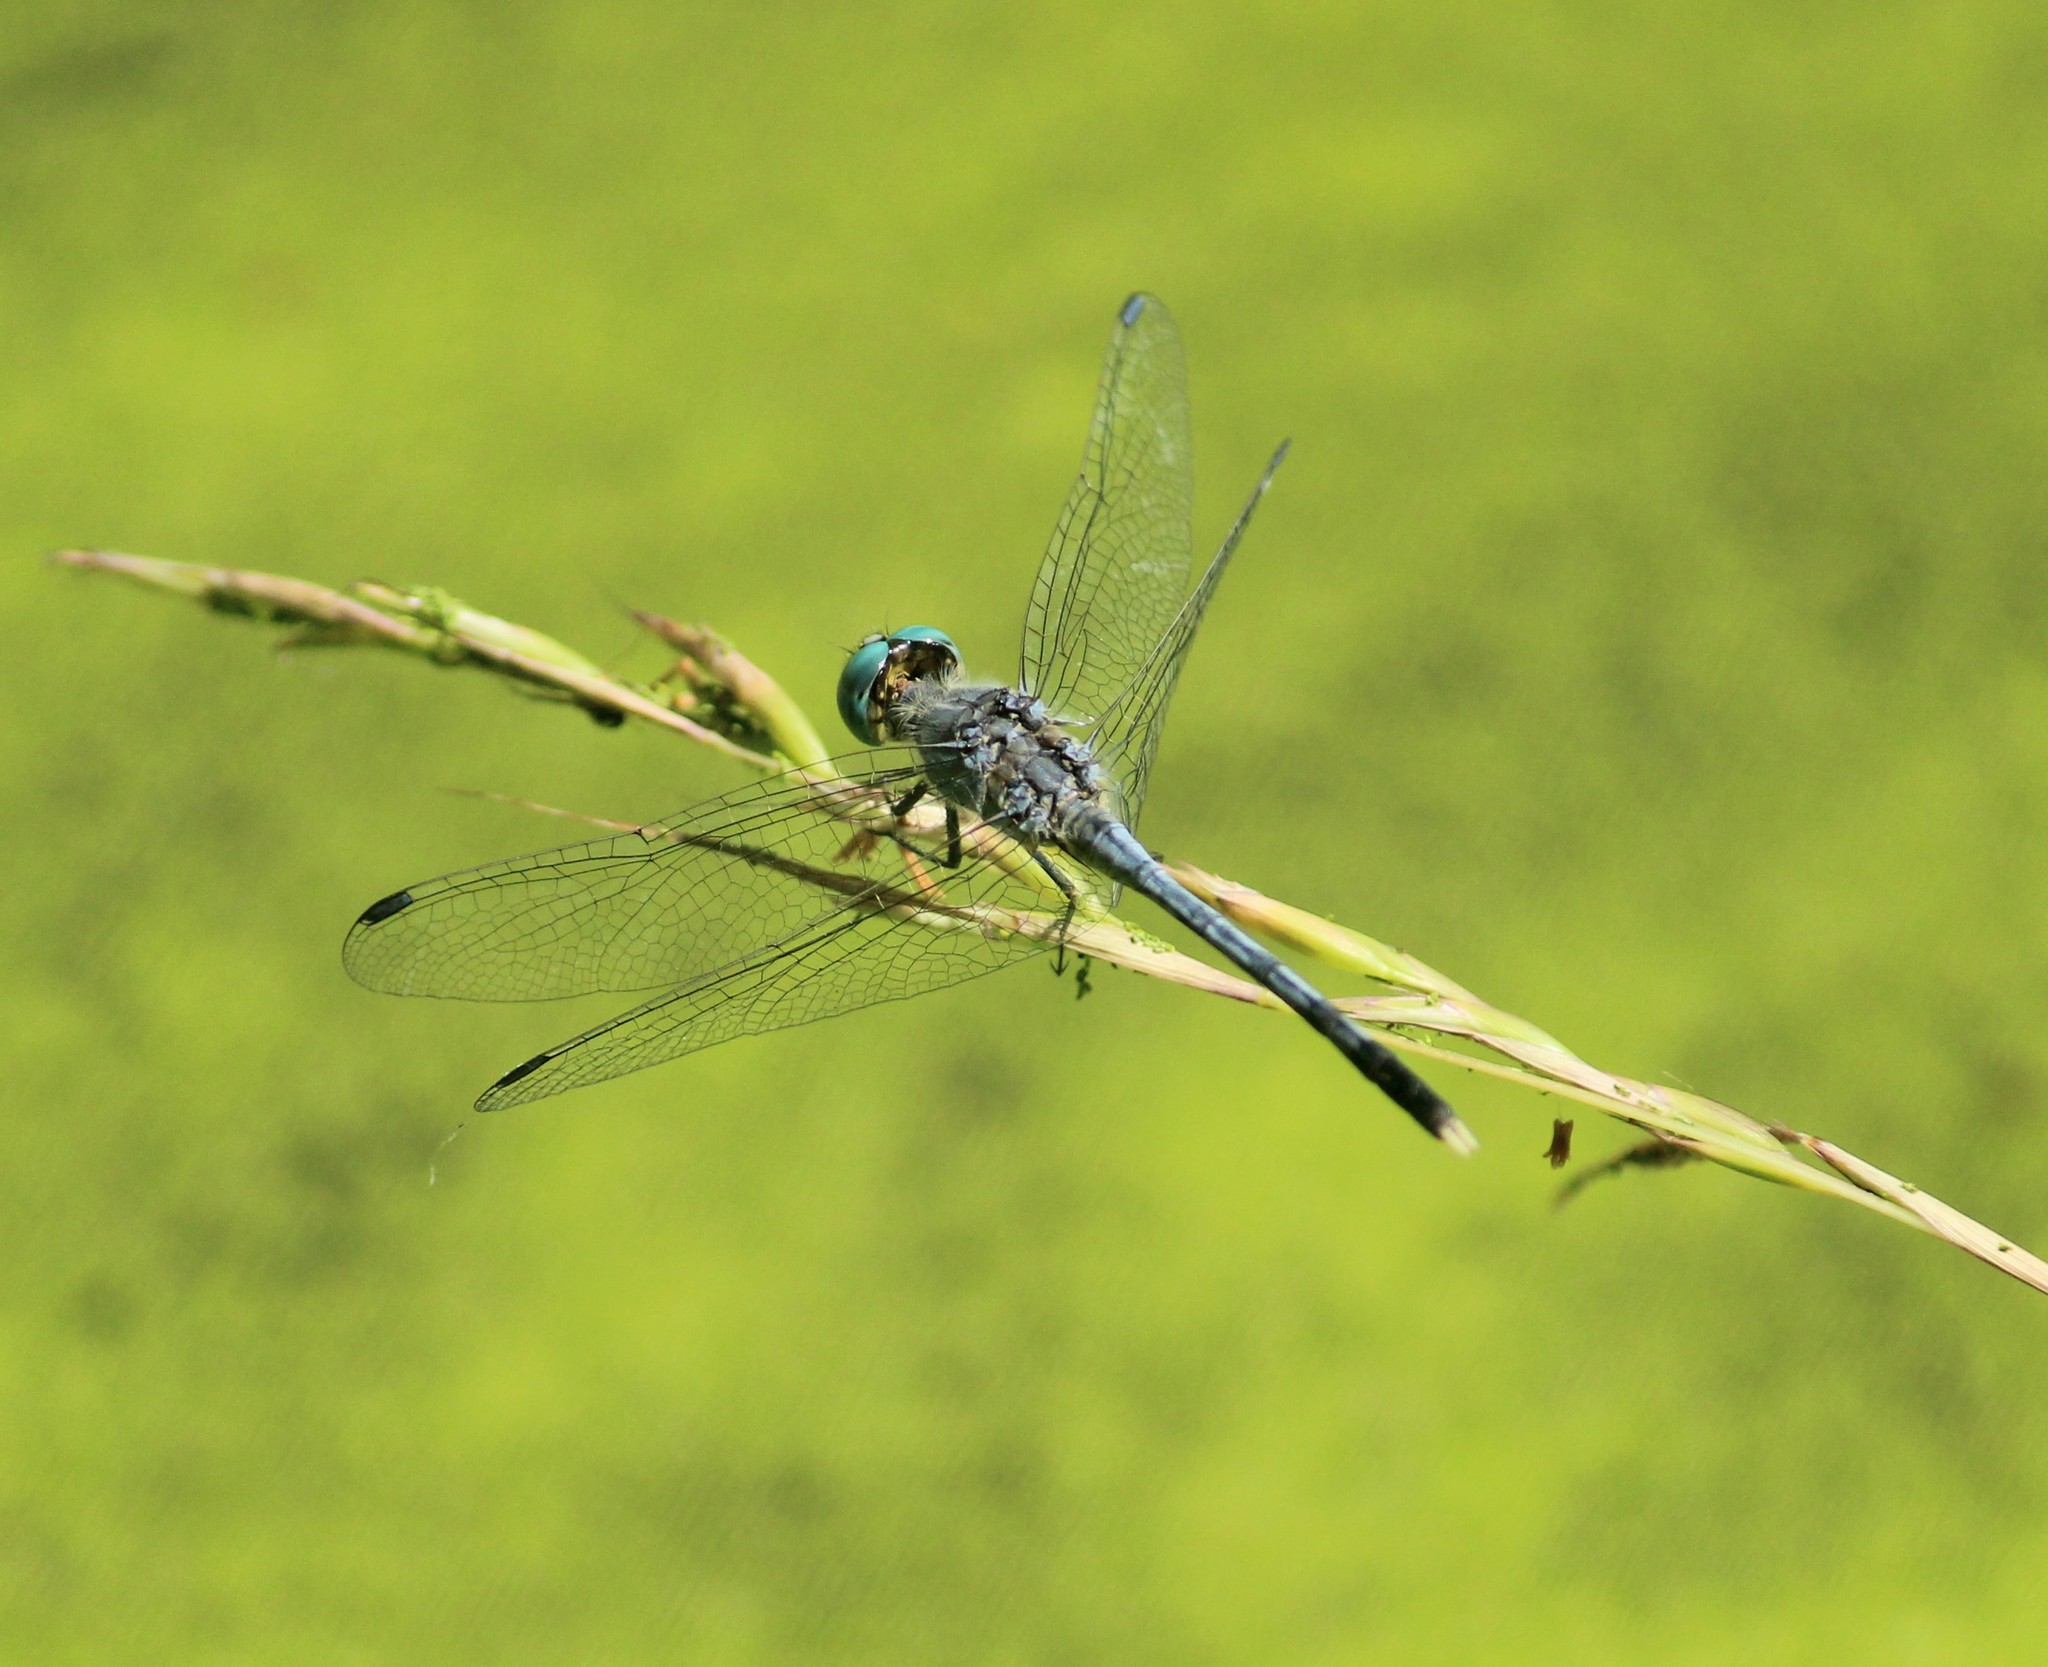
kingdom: Animalia
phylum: Arthropoda
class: Insecta
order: Odonata
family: Libellulidae
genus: Diplacodes
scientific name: Diplacodes trivialis
